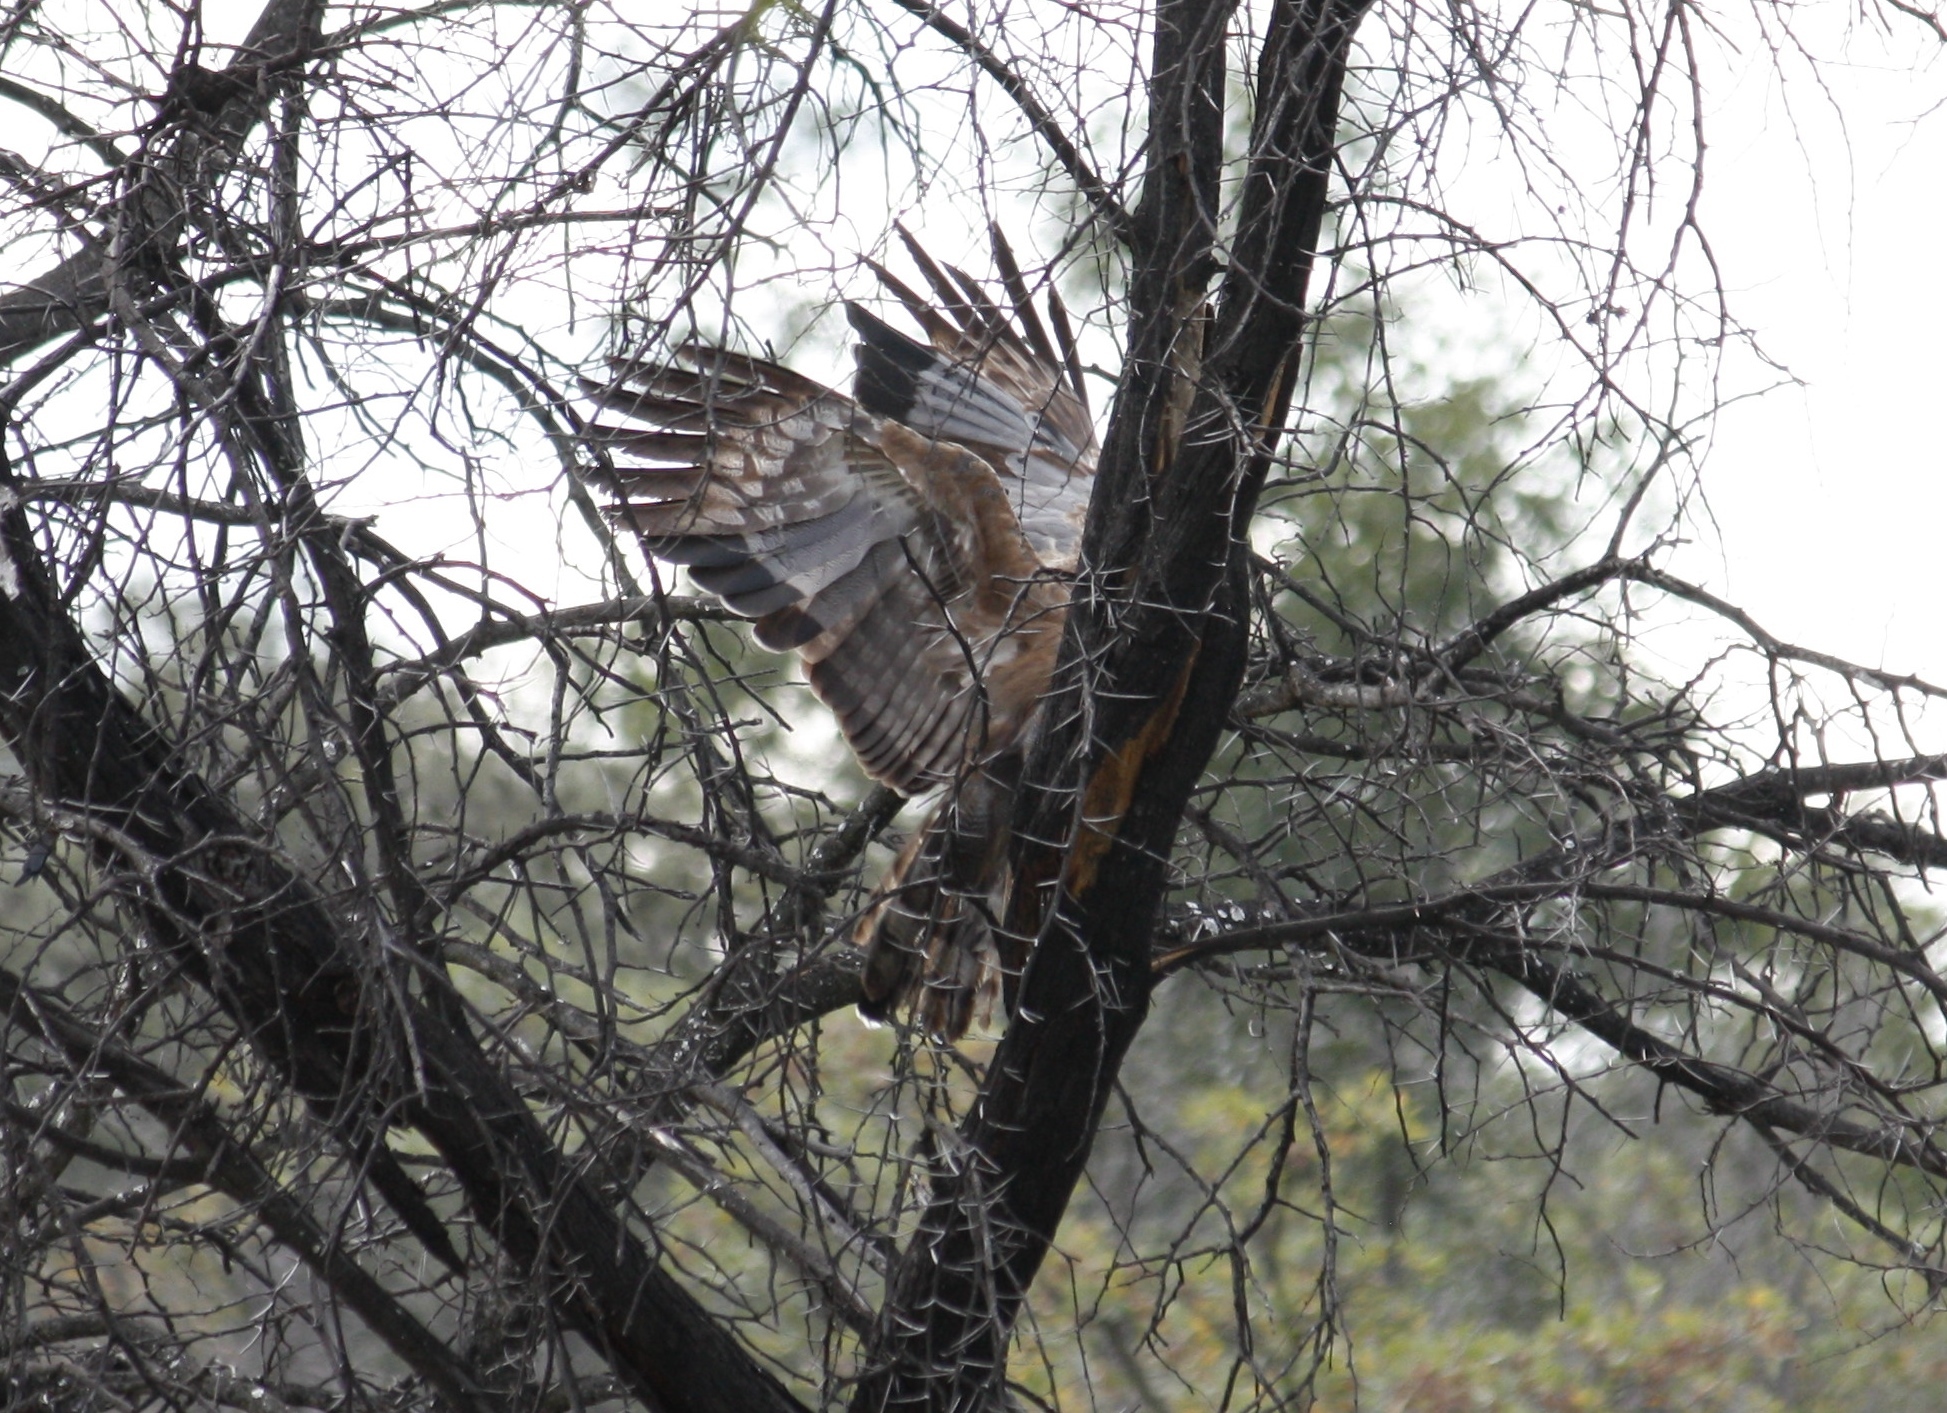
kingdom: Animalia
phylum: Chordata
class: Aves
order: Accipitriformes
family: Accipitridae
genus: Polyboroides
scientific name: Polyboroides typus
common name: African harrier-hawk
